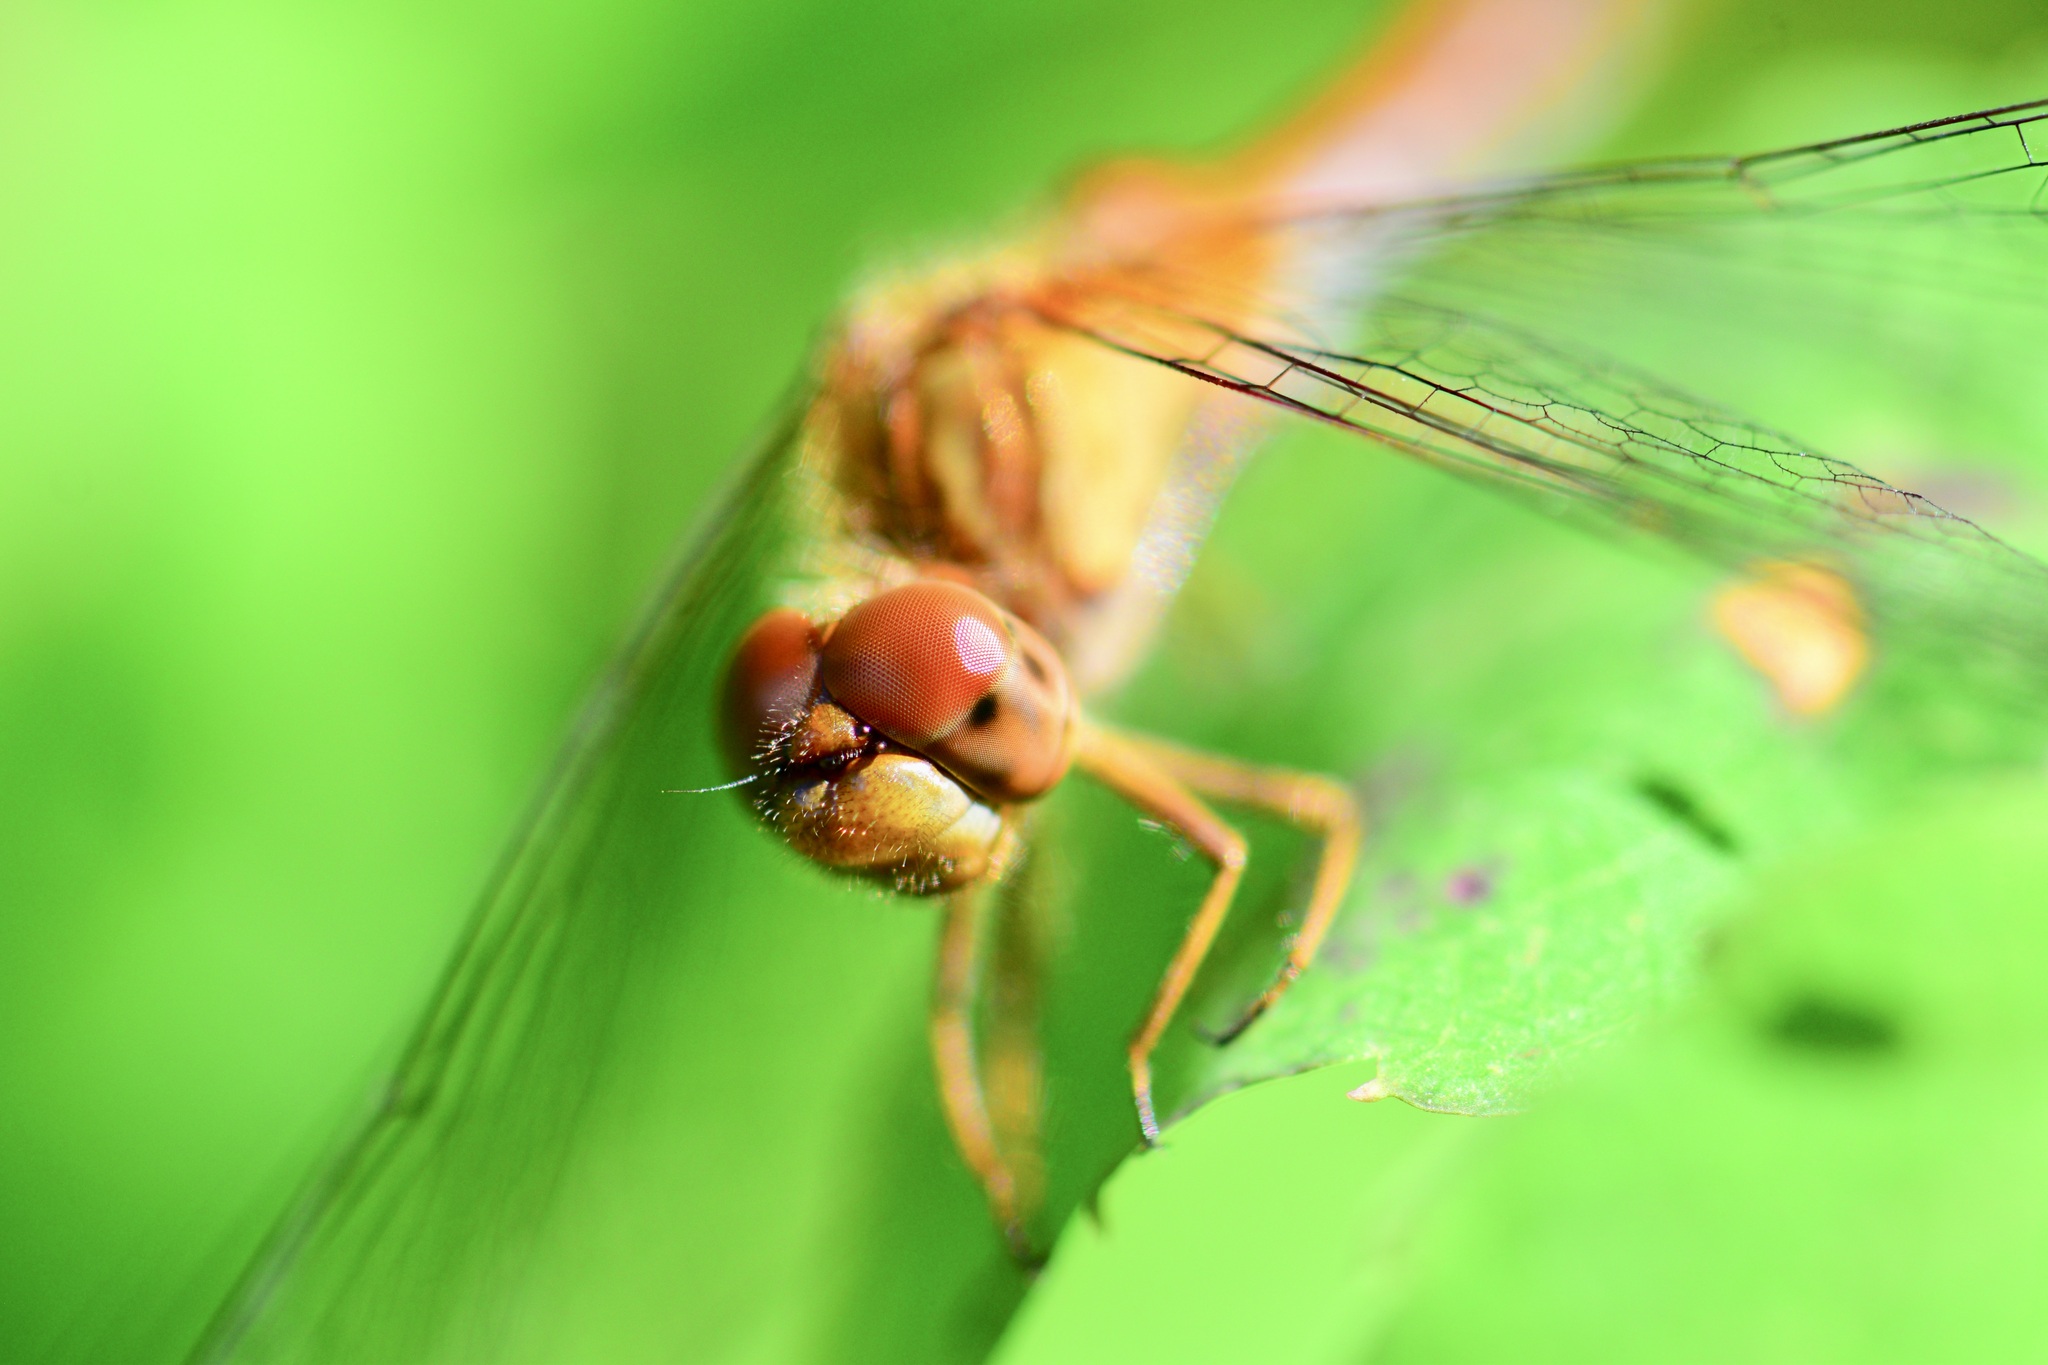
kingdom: Animalia
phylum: Arthropoda
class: Insecta
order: Odonata
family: Libellulidae
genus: Sympetrum
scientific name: Sympetrum vicinum
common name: Autumn meadowhawk
